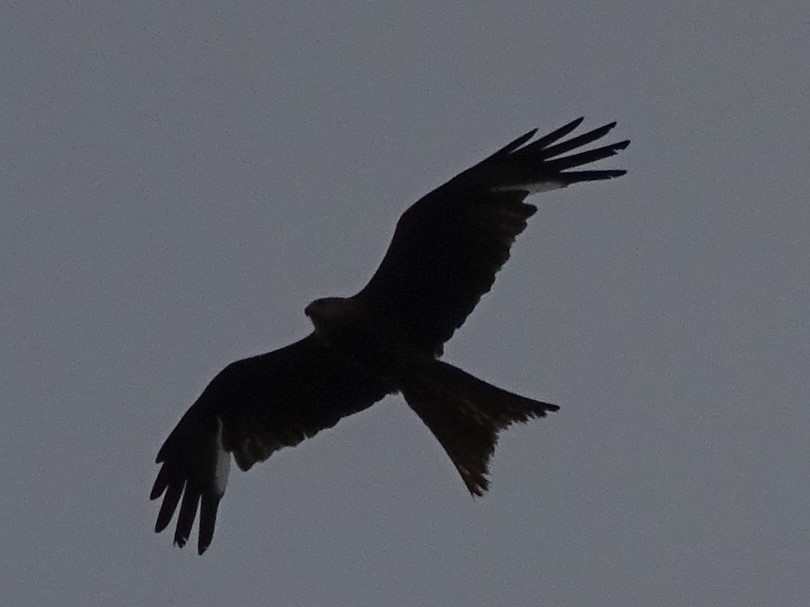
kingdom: Animalia
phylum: Chordata
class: Aves
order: Accipitriformes
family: Accipitridae
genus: Milvus
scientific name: Milvus milvus
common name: Red kite
